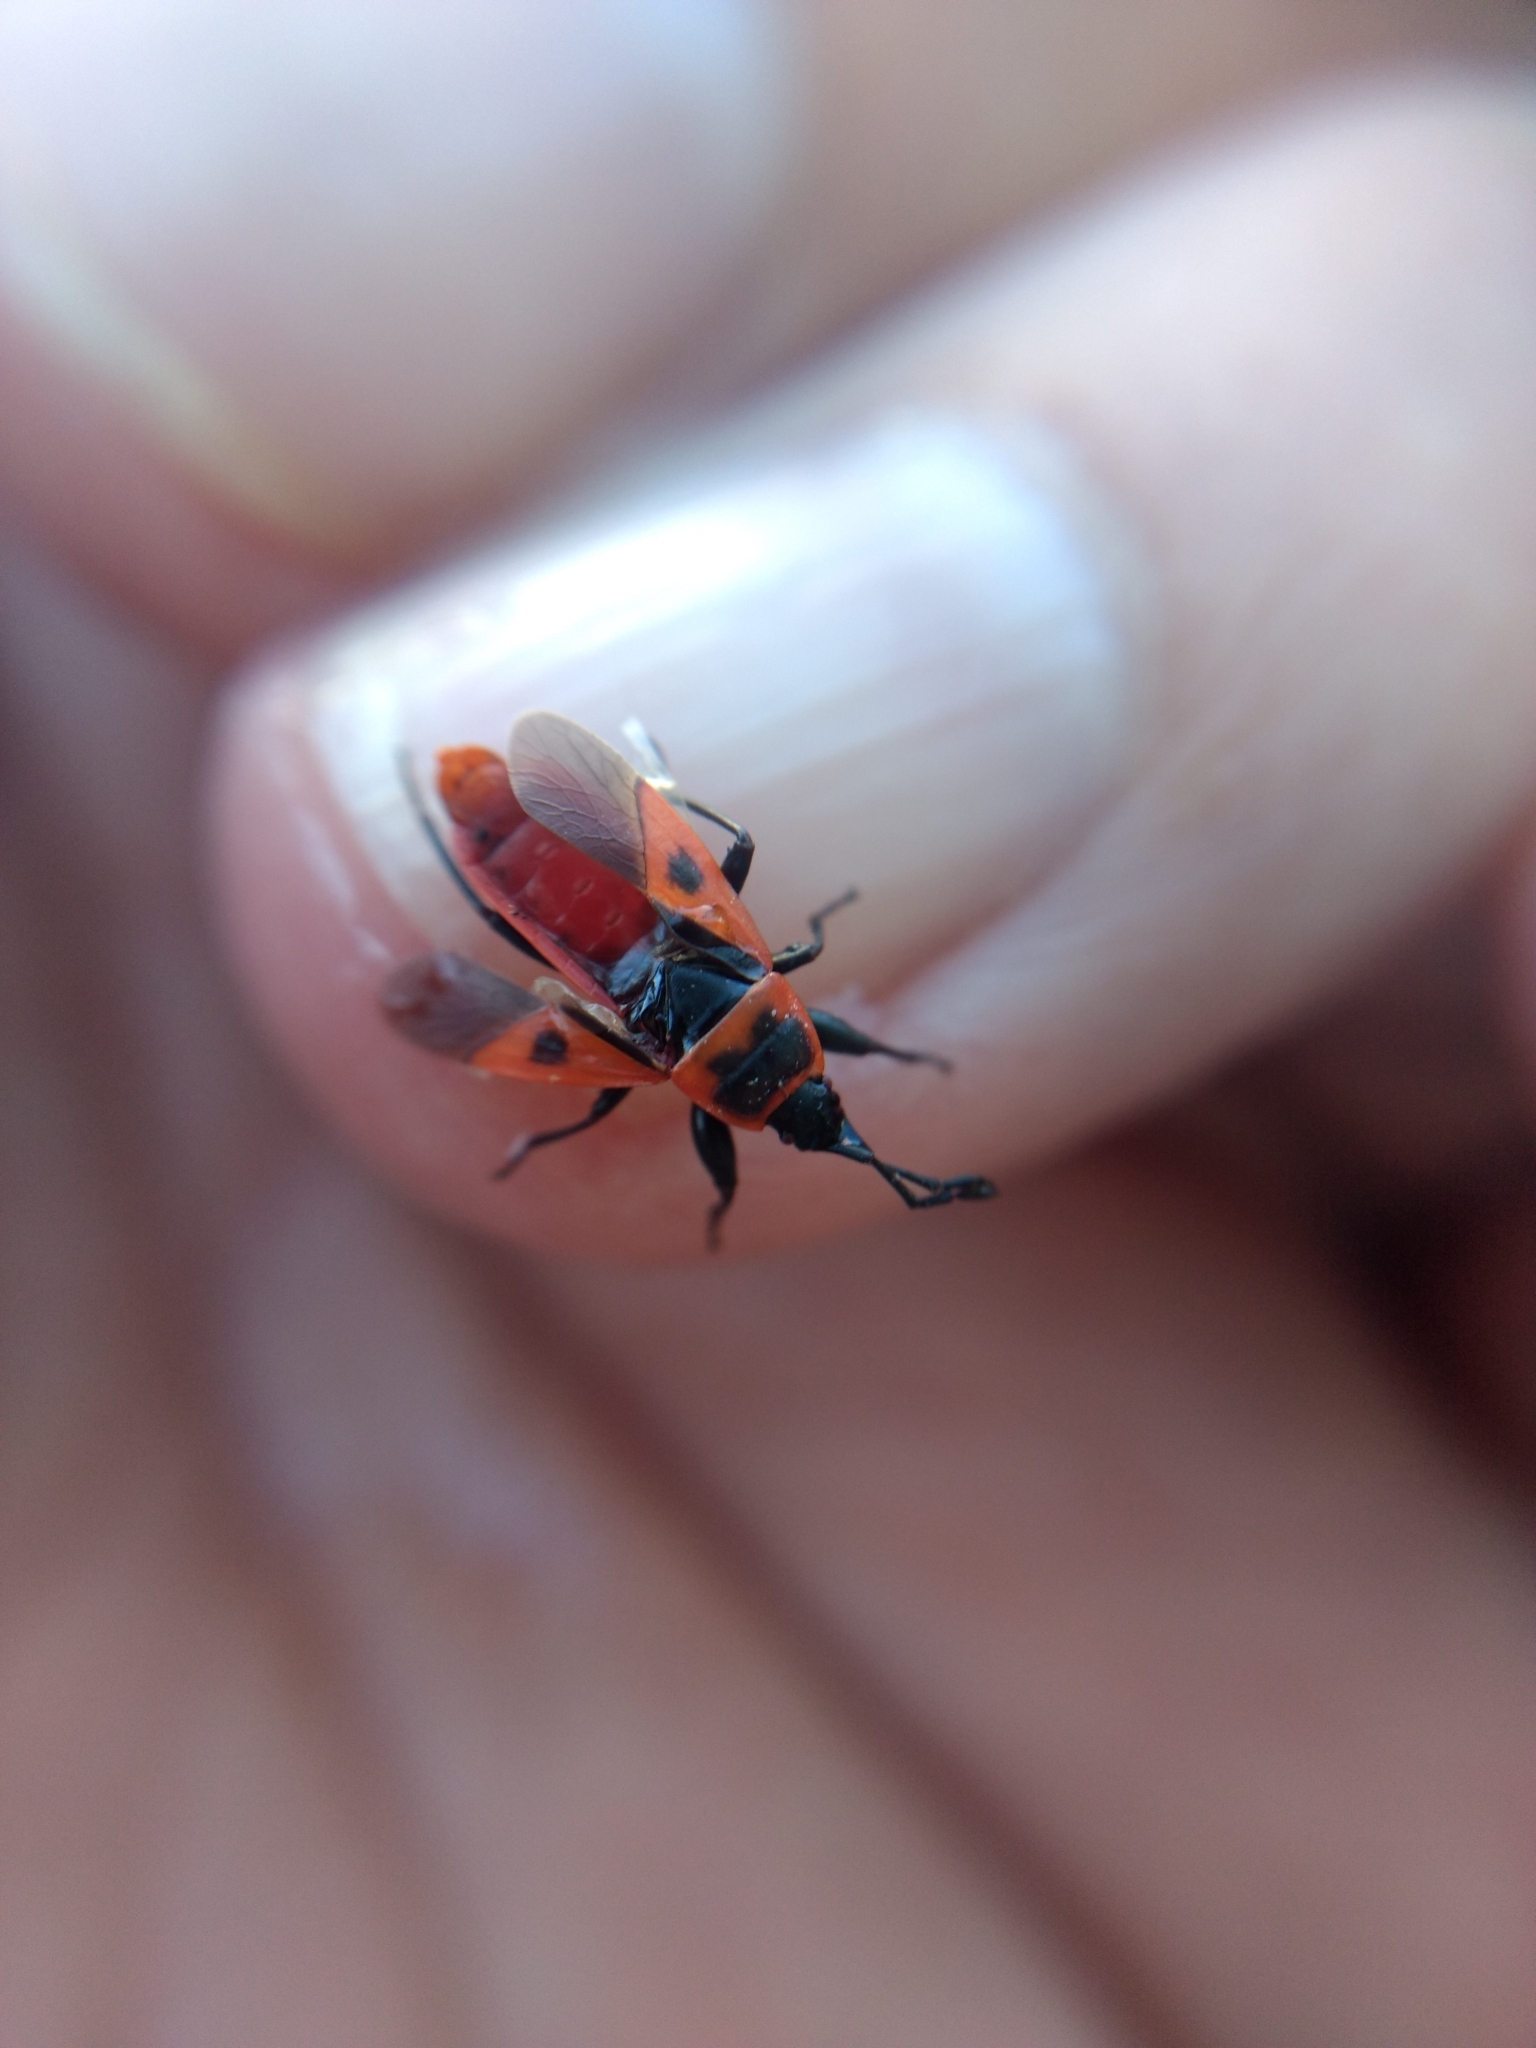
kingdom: Animalia
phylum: Arthropoda
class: Insecta
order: Hemiptera
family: Pyrrhocoridae
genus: Scantius
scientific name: Scantius aegyptius
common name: Red bug
